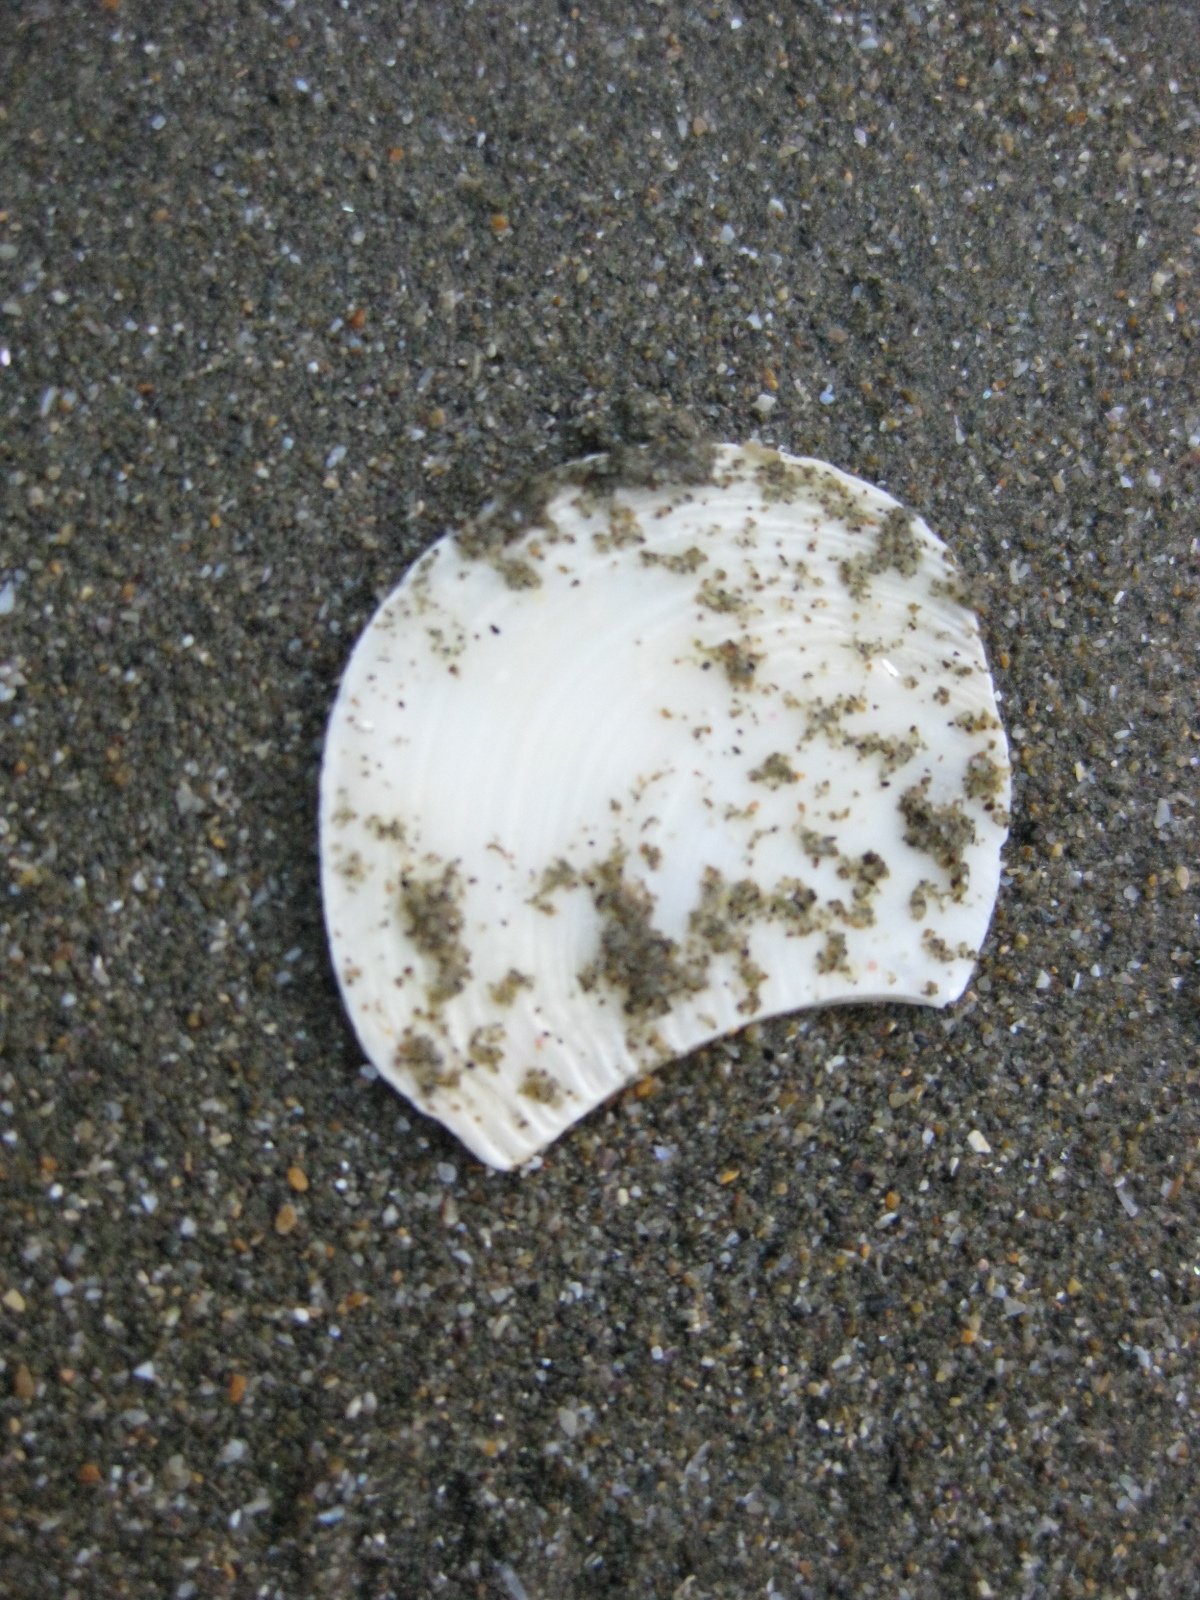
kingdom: Animalia
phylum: Mollusca
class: Bivalvia
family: Myochamidae
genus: Myadora
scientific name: Myadora striata
